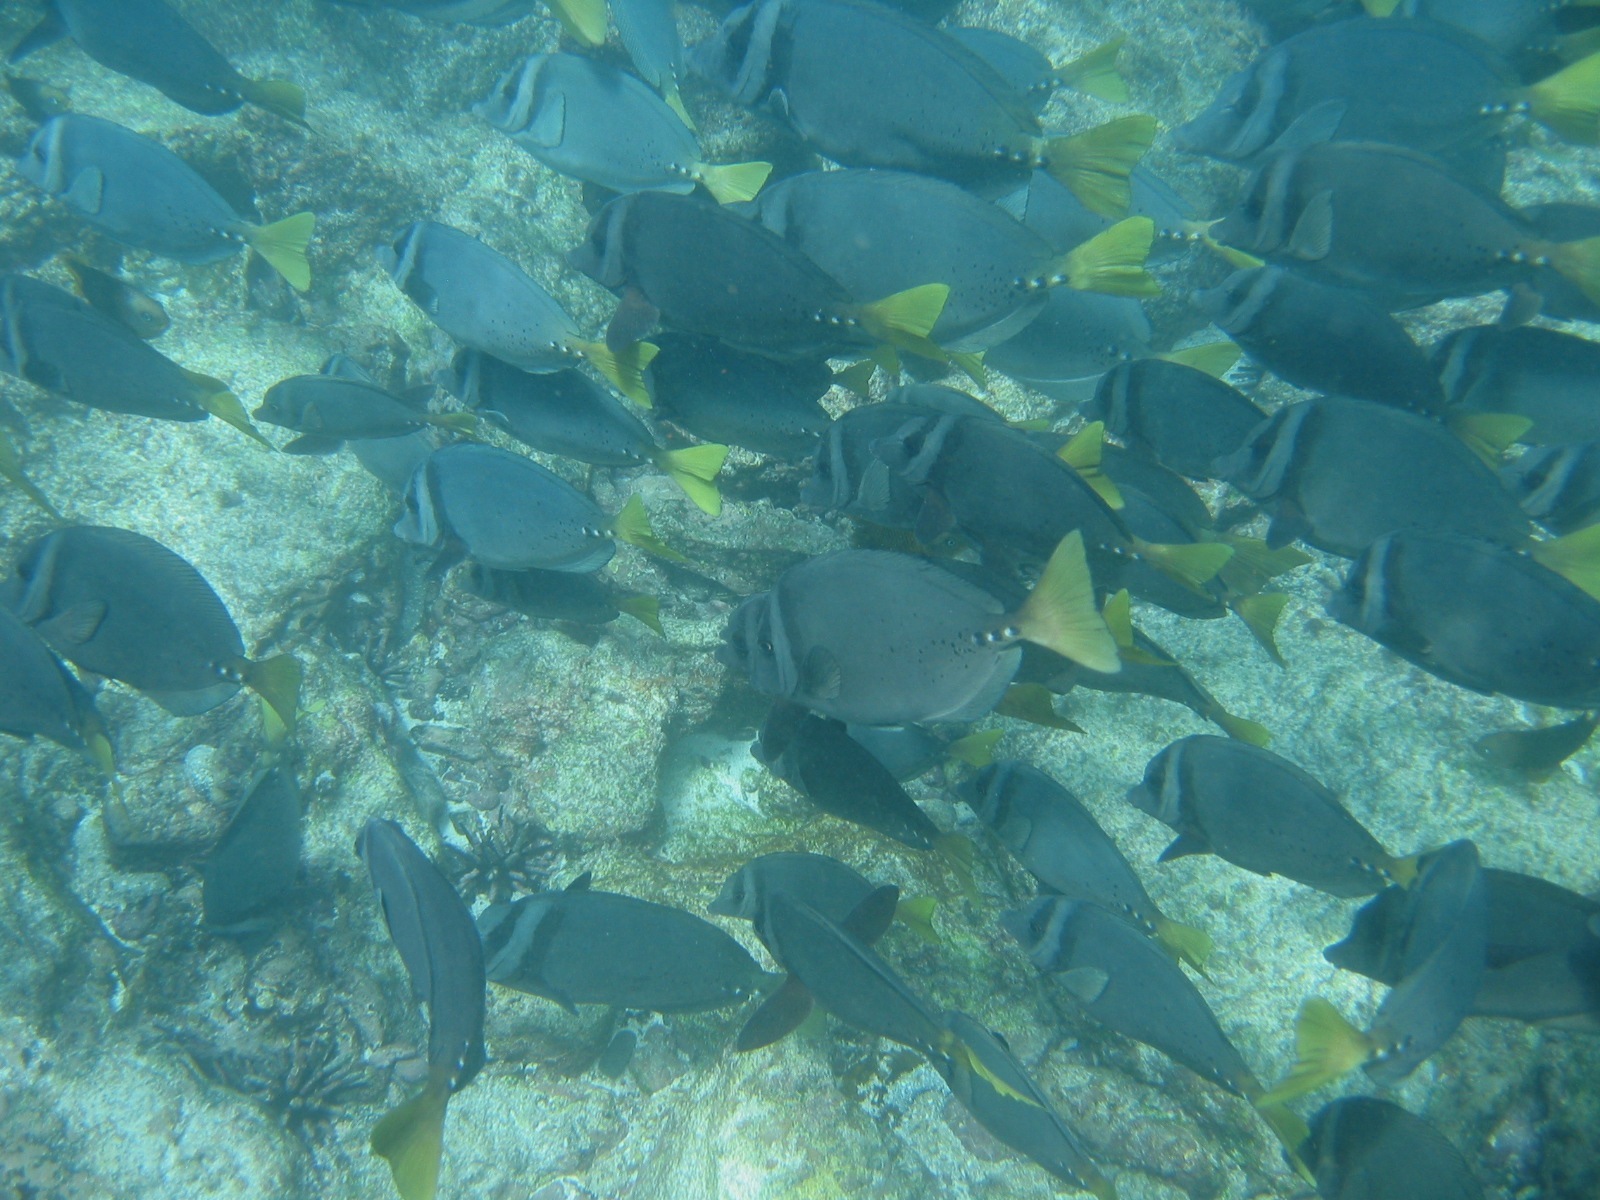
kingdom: Animalia
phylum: Chordata
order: Perciformes
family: Acanthuridae
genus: Prionurus
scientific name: Prionurus laticlavius
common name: Razor surgeonfish
